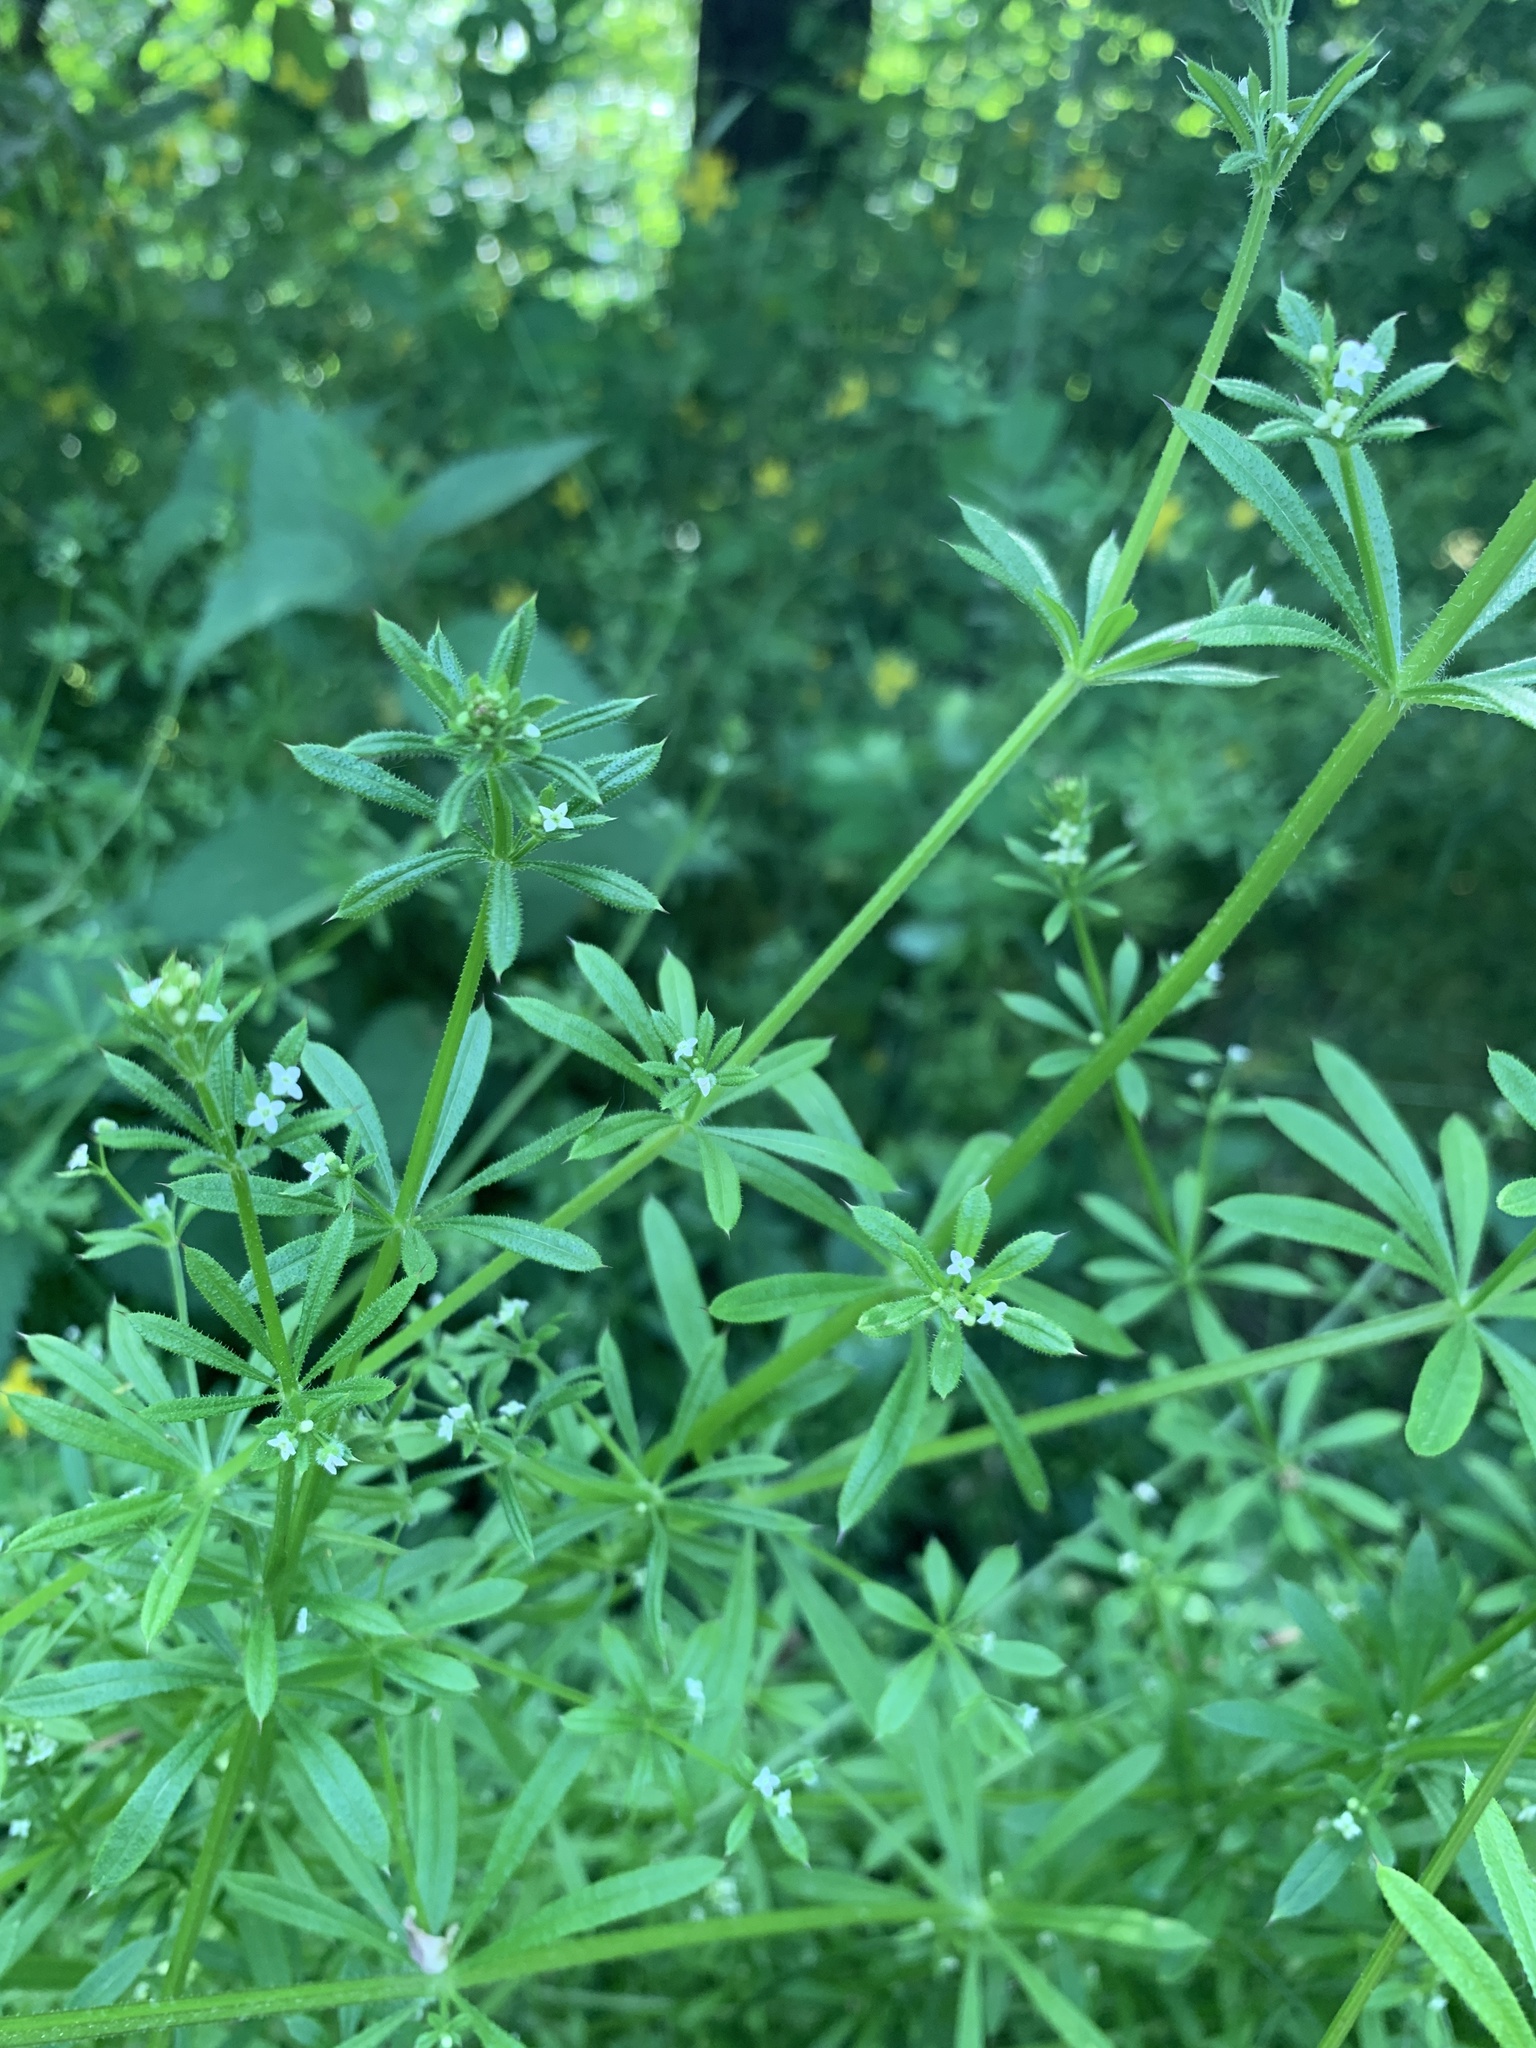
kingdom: Plantae
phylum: Tracheophyta
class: Magnoliopsida
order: Gentianales
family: Rubiaceae
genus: Galium
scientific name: Galium aparine
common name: Cleavers
